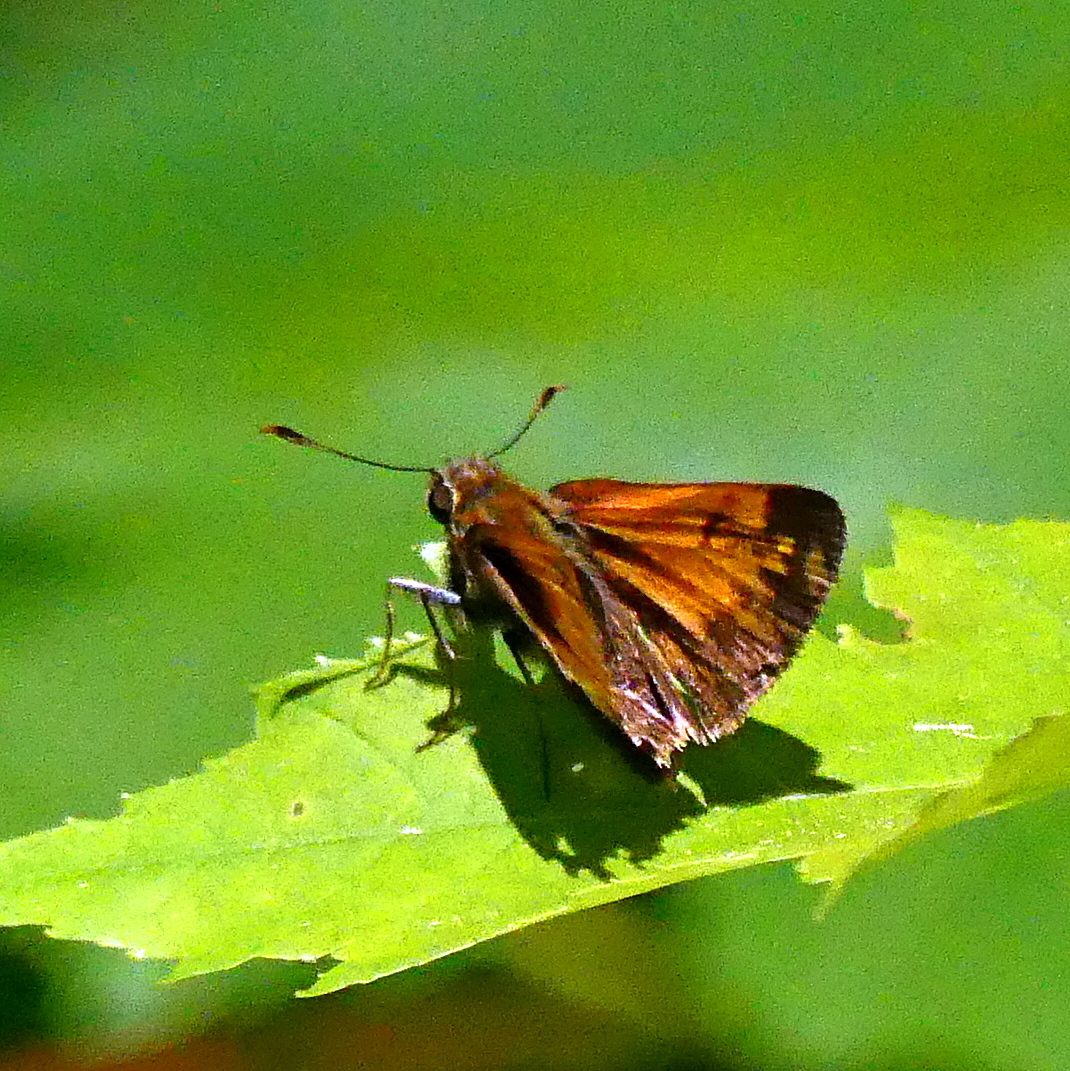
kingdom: Animalia
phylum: Arthropoda
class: Insecta
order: Lepidoptera
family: Hesperiidae
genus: Lon
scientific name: Lon hobomok
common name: Hobomok skipper
